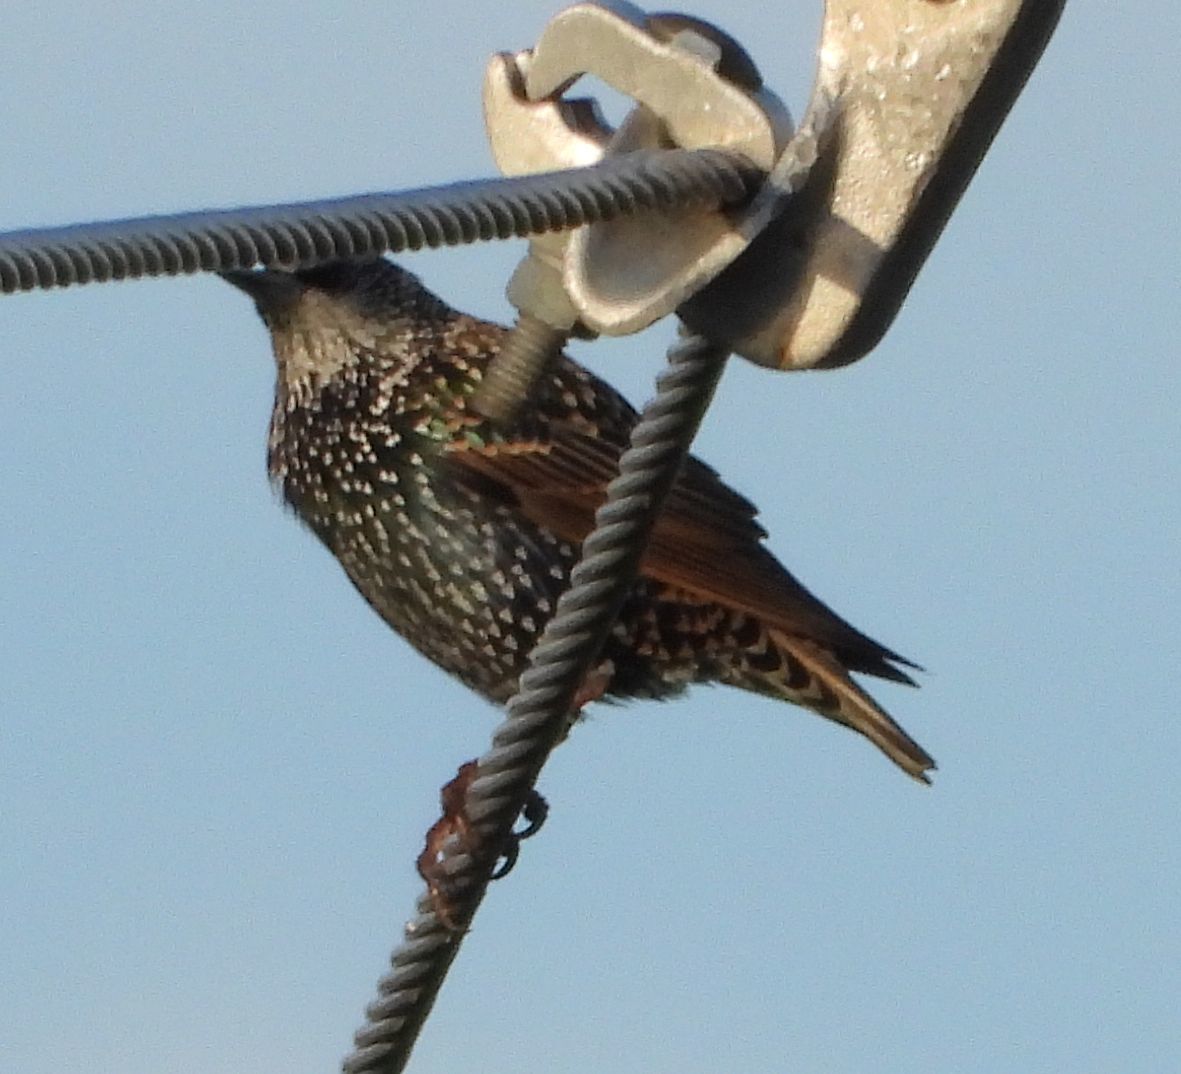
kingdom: Animalia
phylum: Chordata
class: Aves
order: Passeriformes
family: Sturnidae
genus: Sturnus
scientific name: Sturnus vulgaris
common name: Common starling
